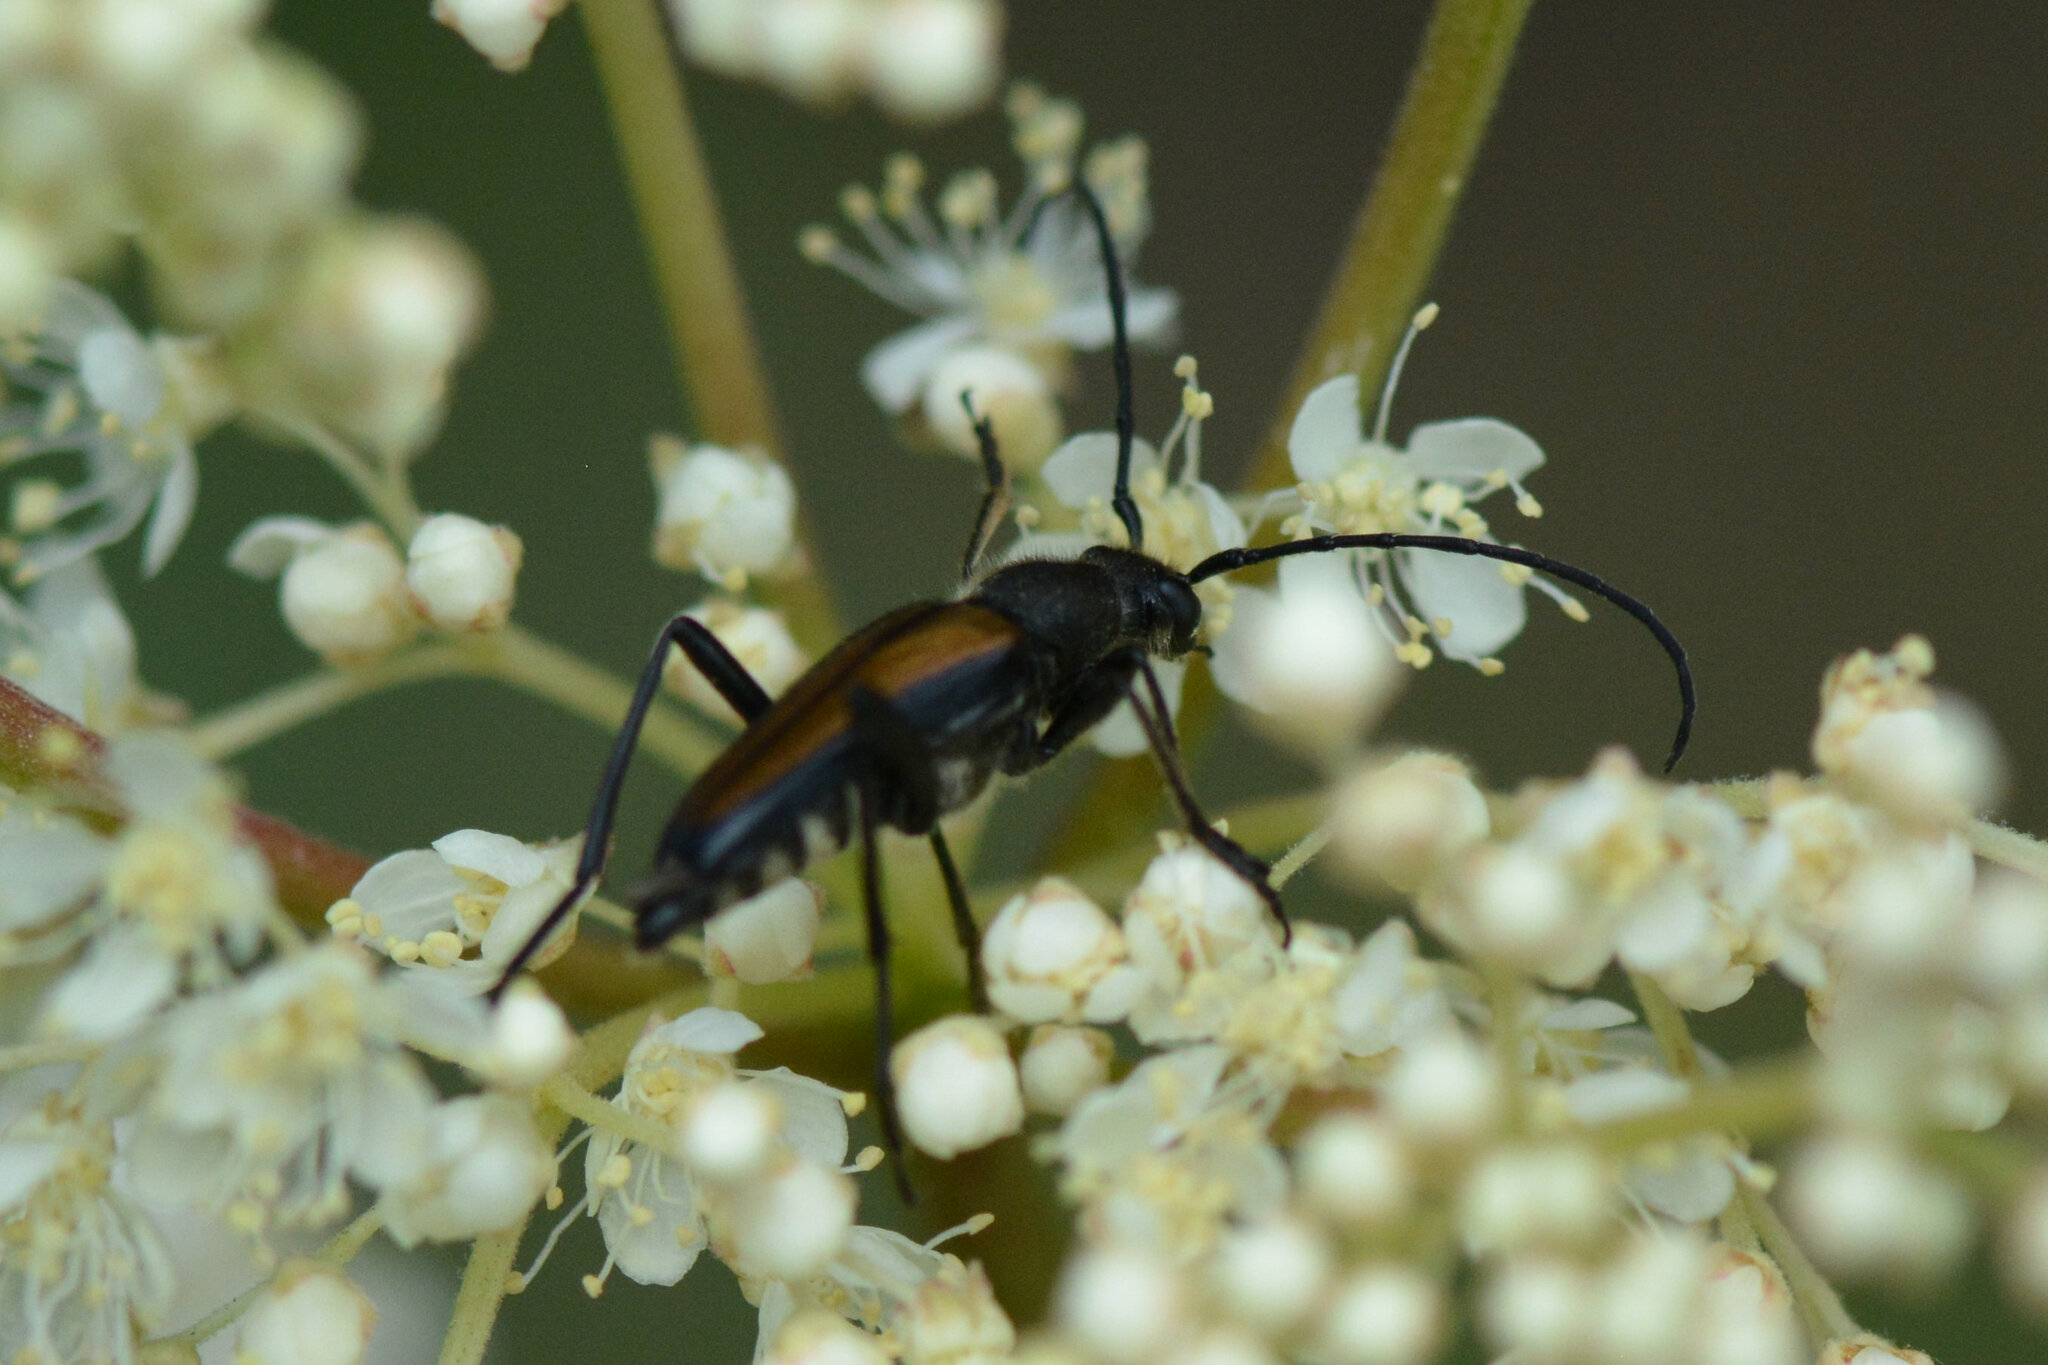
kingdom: Animalia
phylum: Arthropoda
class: Insecta
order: Coleoptera
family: Cerambycidae
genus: Anastrangalia
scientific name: Anastrangalia dubia
